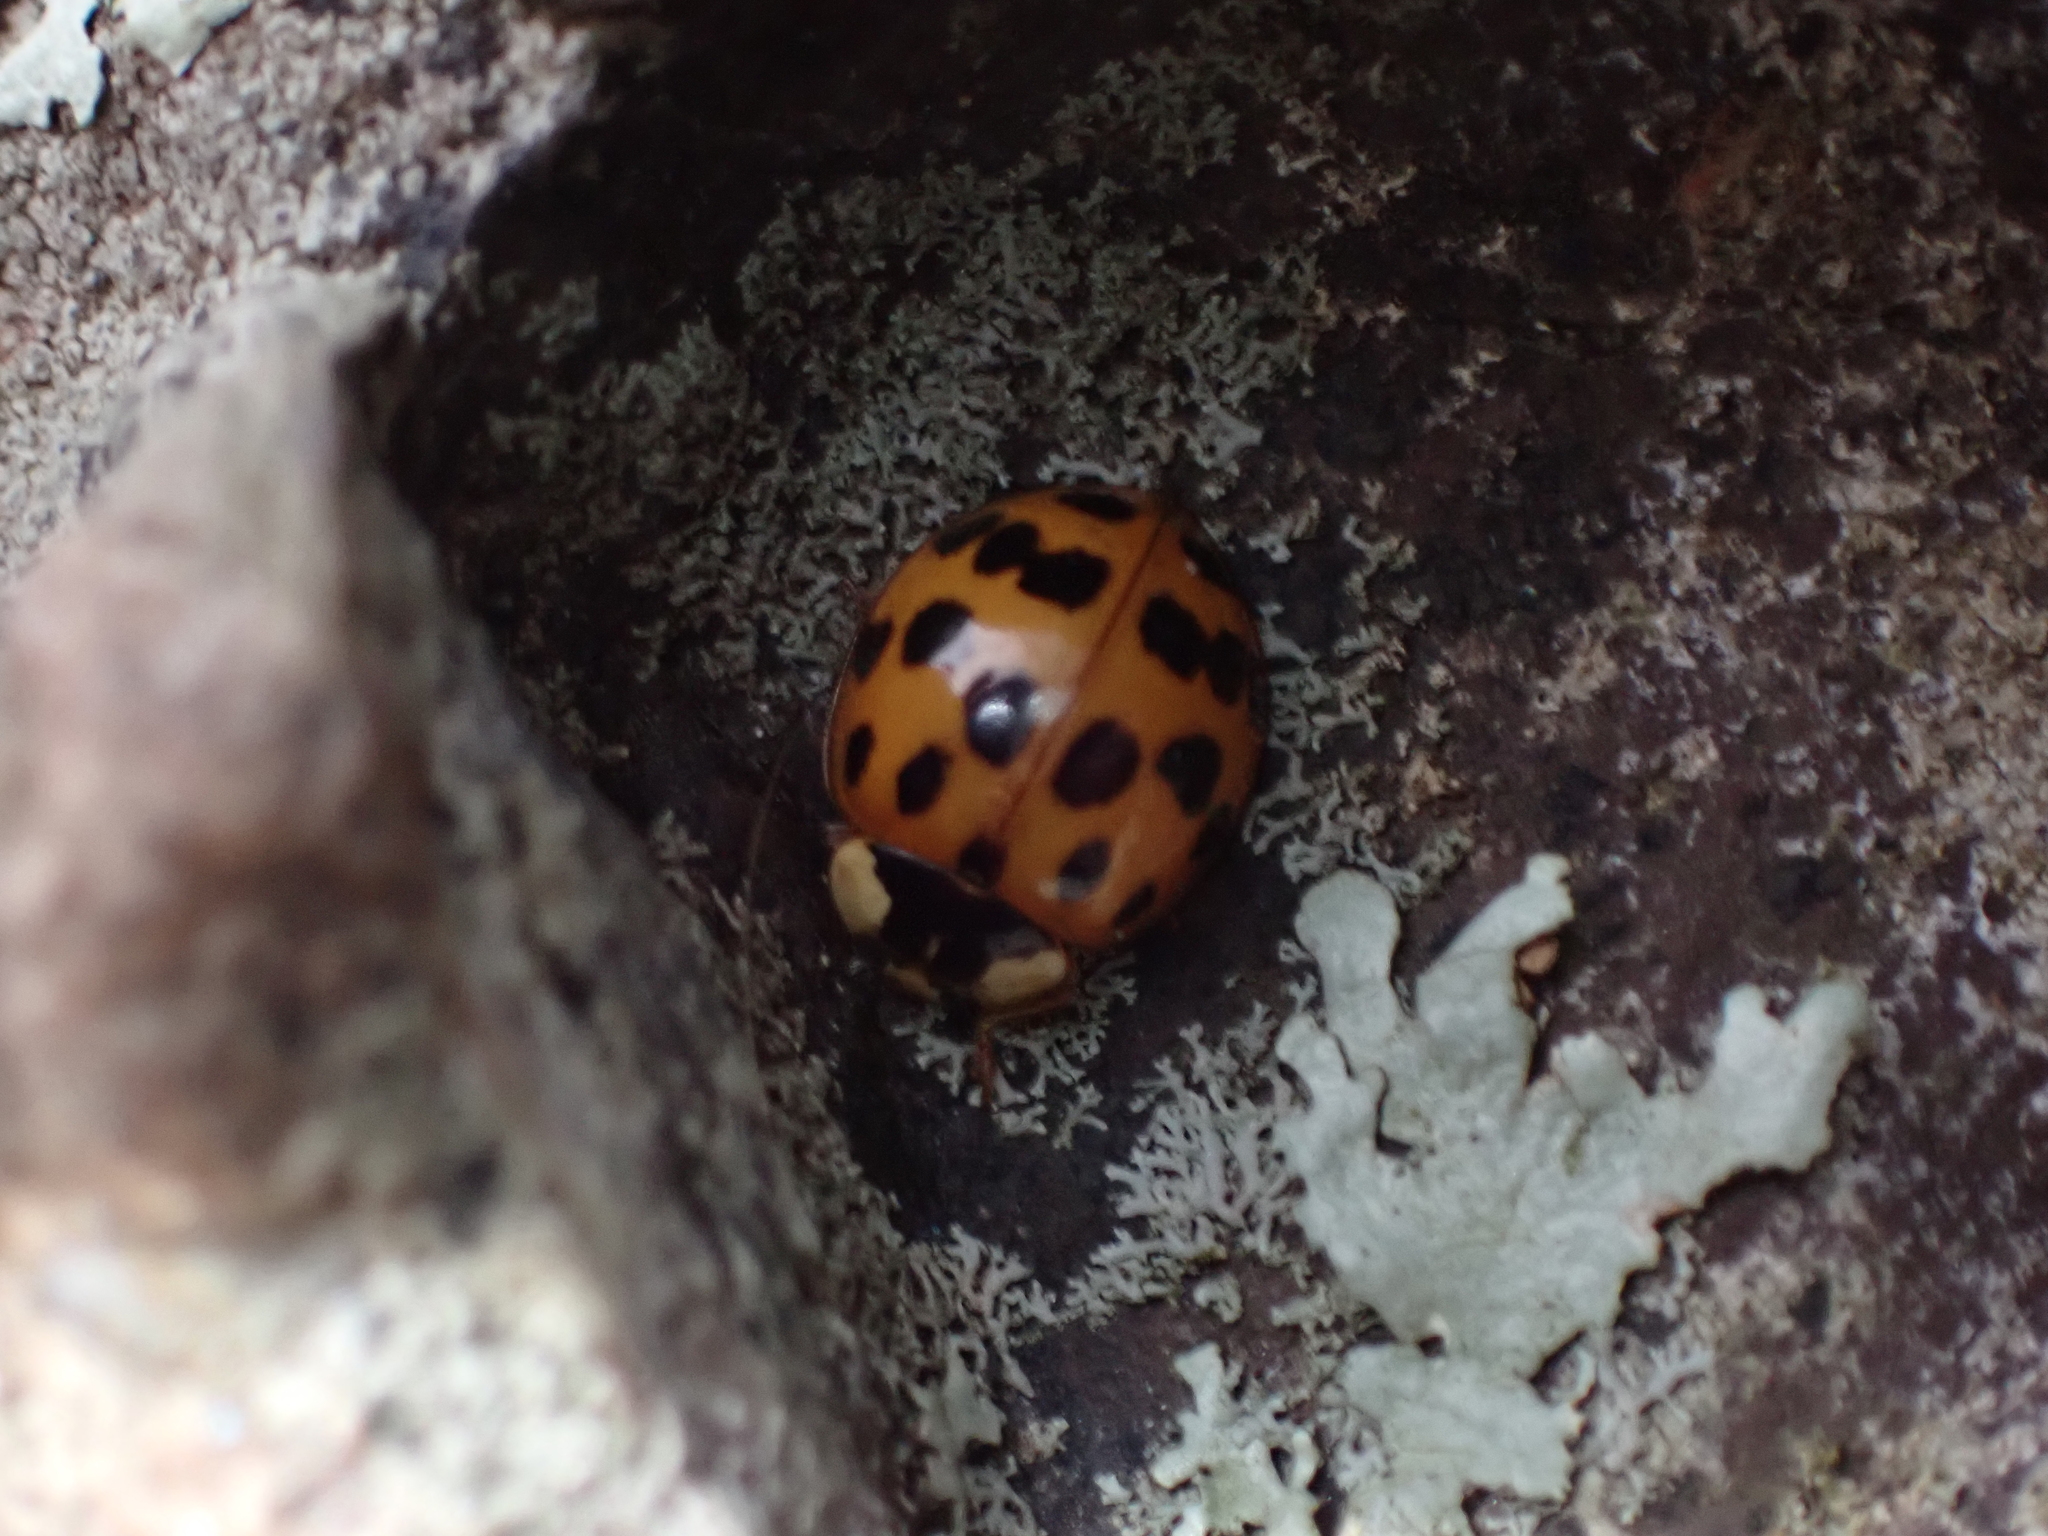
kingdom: Animalia
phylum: Arthropoda
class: Insecta
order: Coleoptera
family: Coccinellidae
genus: Harmonia
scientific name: Harmonia axyridis
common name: Harlequin ladybird
